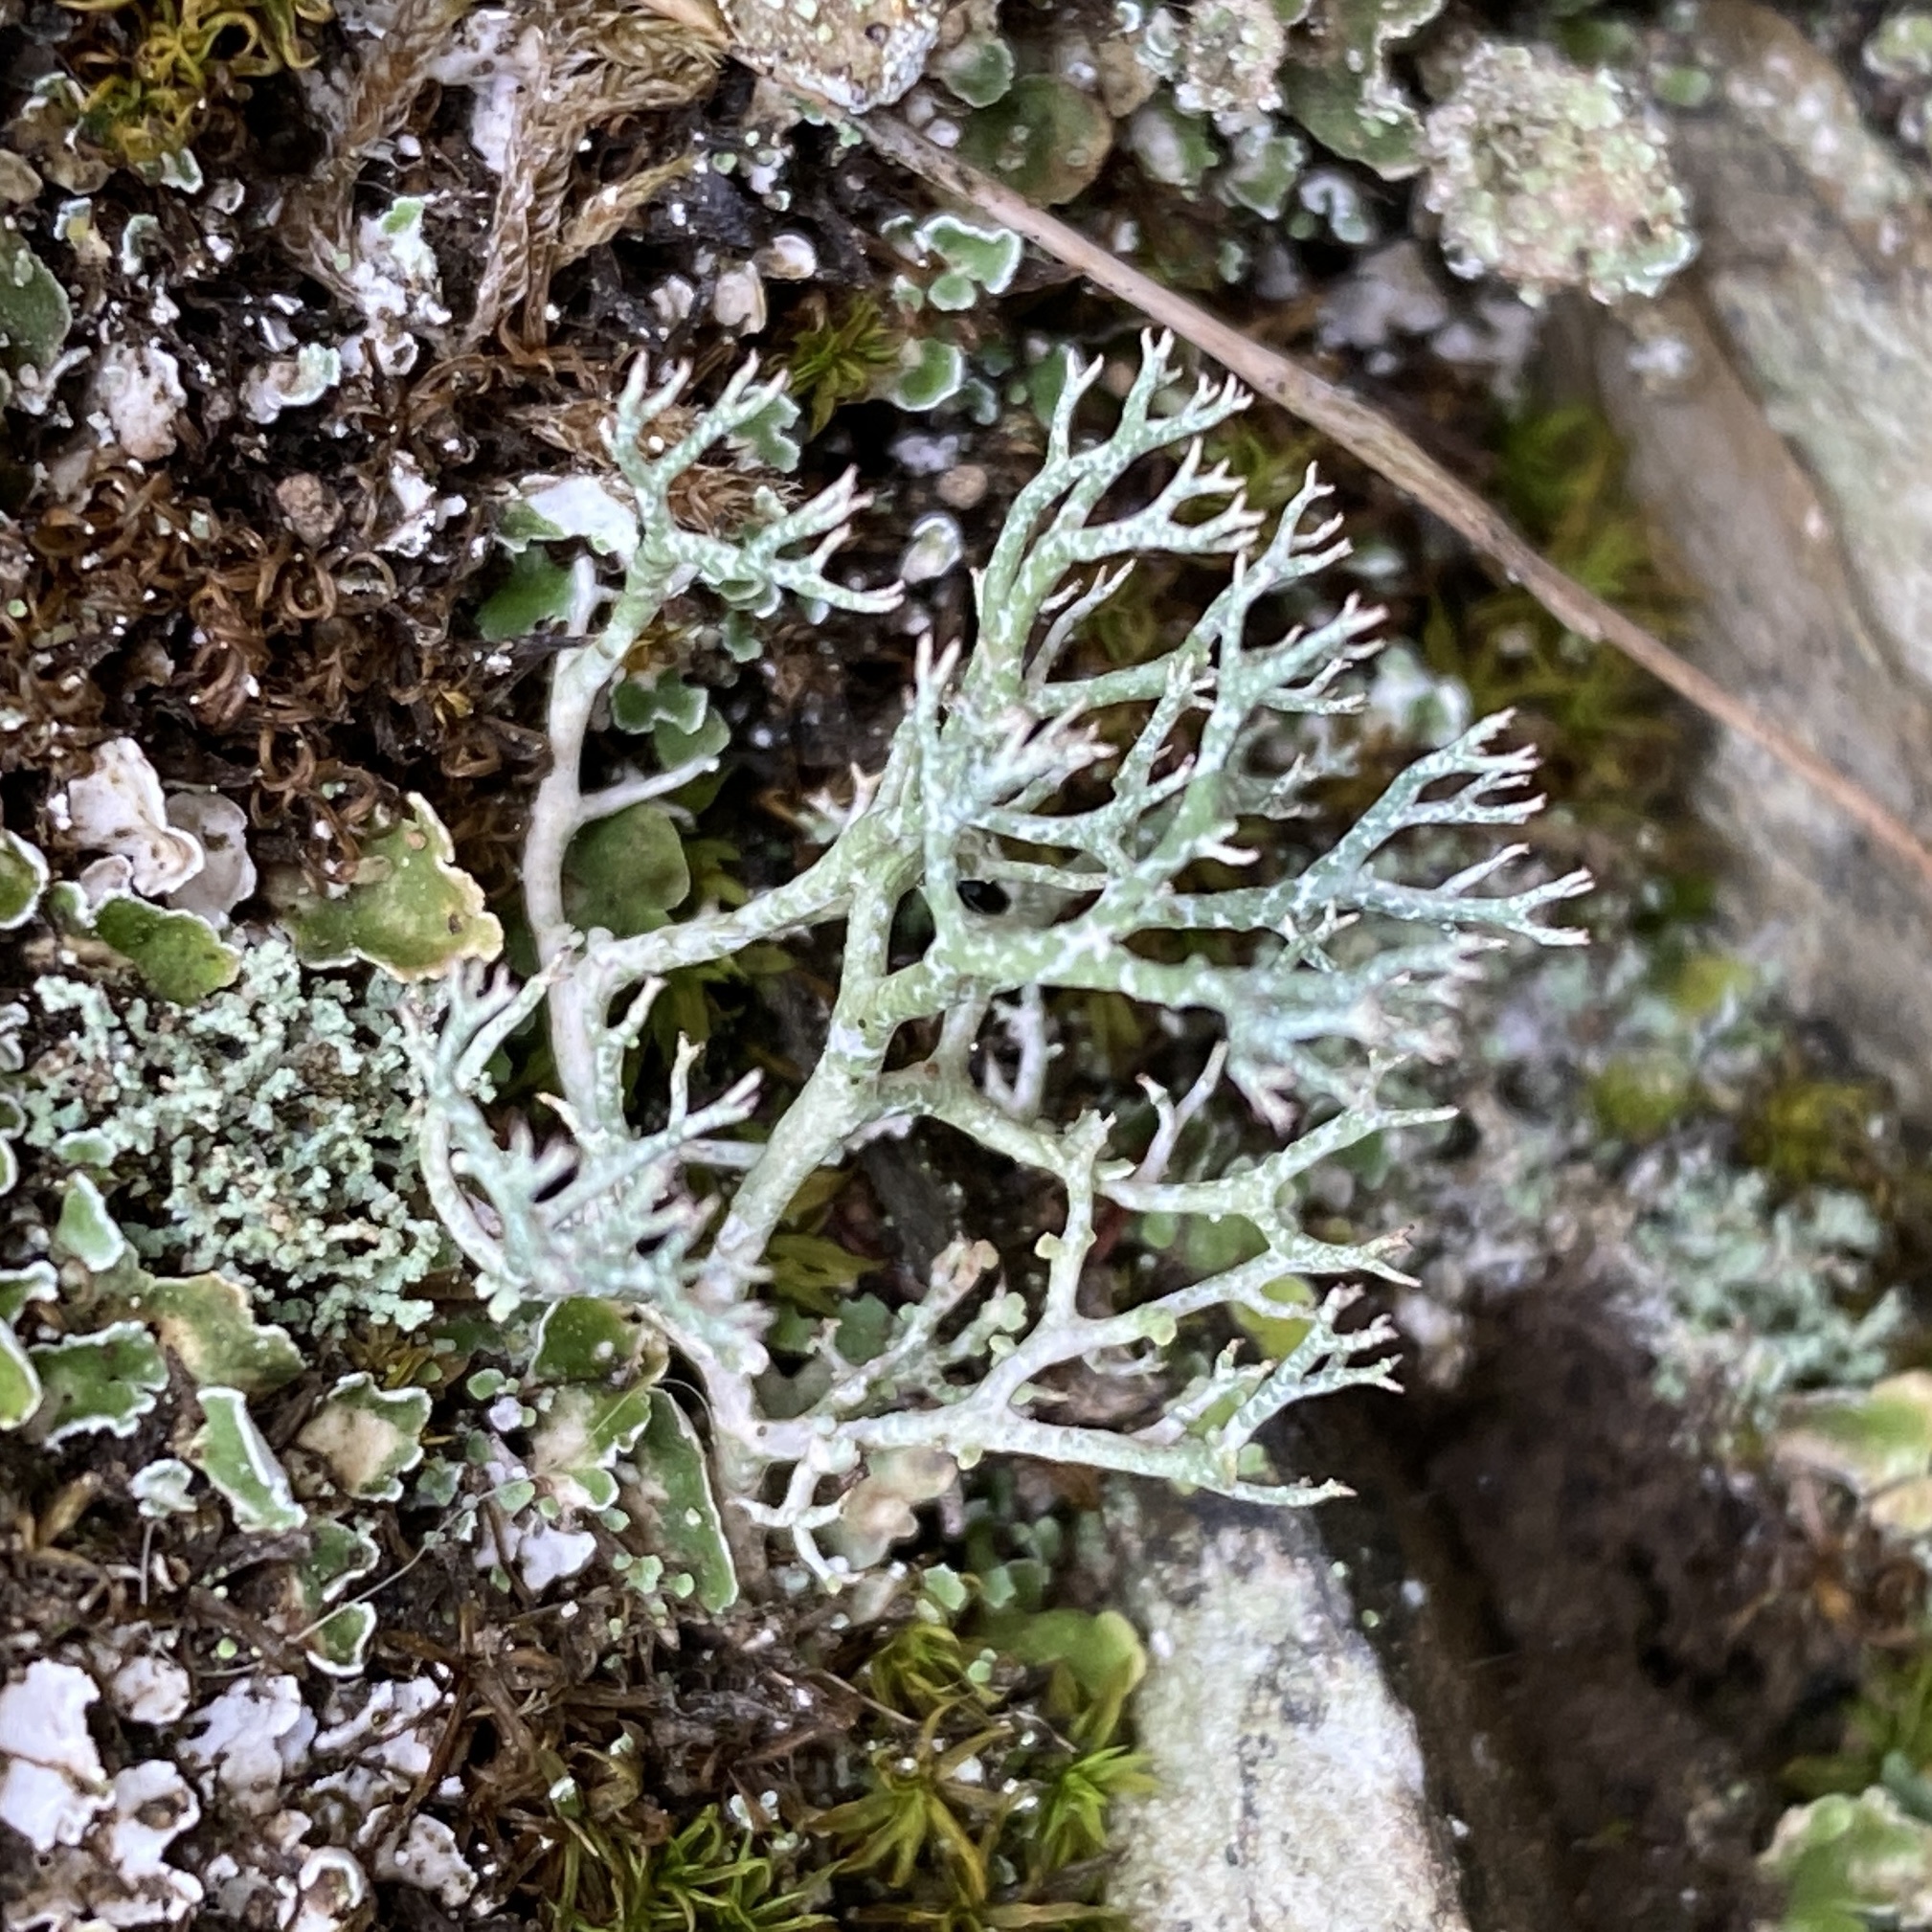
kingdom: Fungi
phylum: Ascomycota
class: Lecanoromycetes
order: Lecanorales
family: Cladoniaceae
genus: Cladonia
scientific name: Cladonia rangiformis
